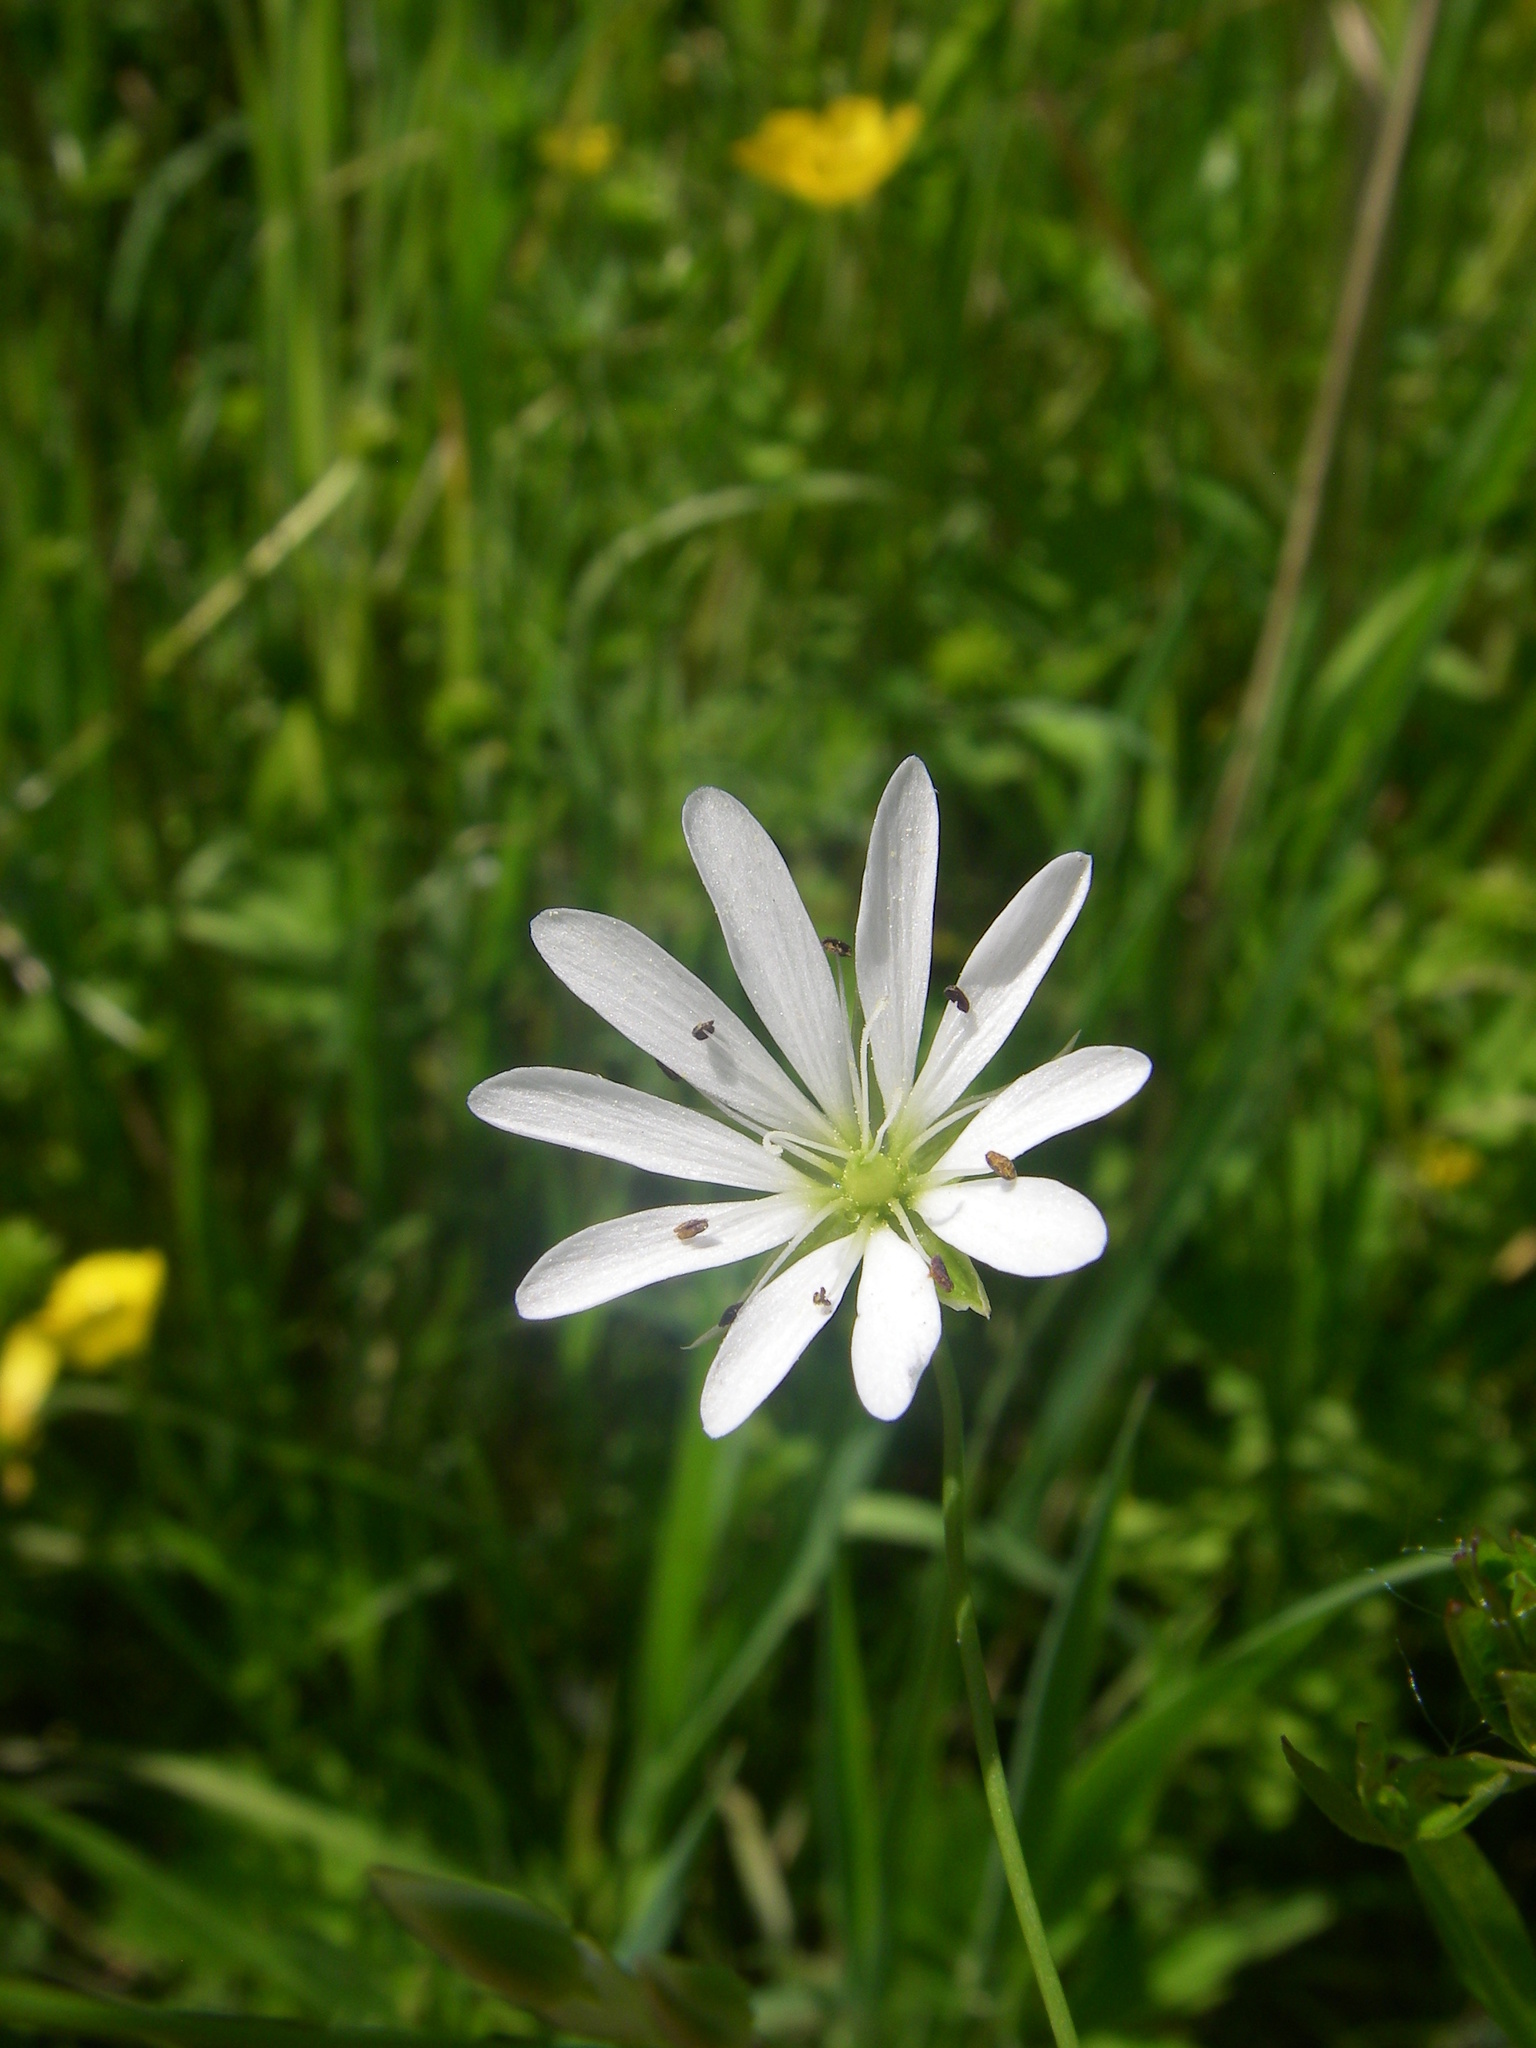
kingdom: Plantae
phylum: Tracheophyta
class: Magnoliopsida
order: Caryophyllales
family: Caryophyllaceae
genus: Stellaria
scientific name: Stellaria palustris
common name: Marsh stitchwort
